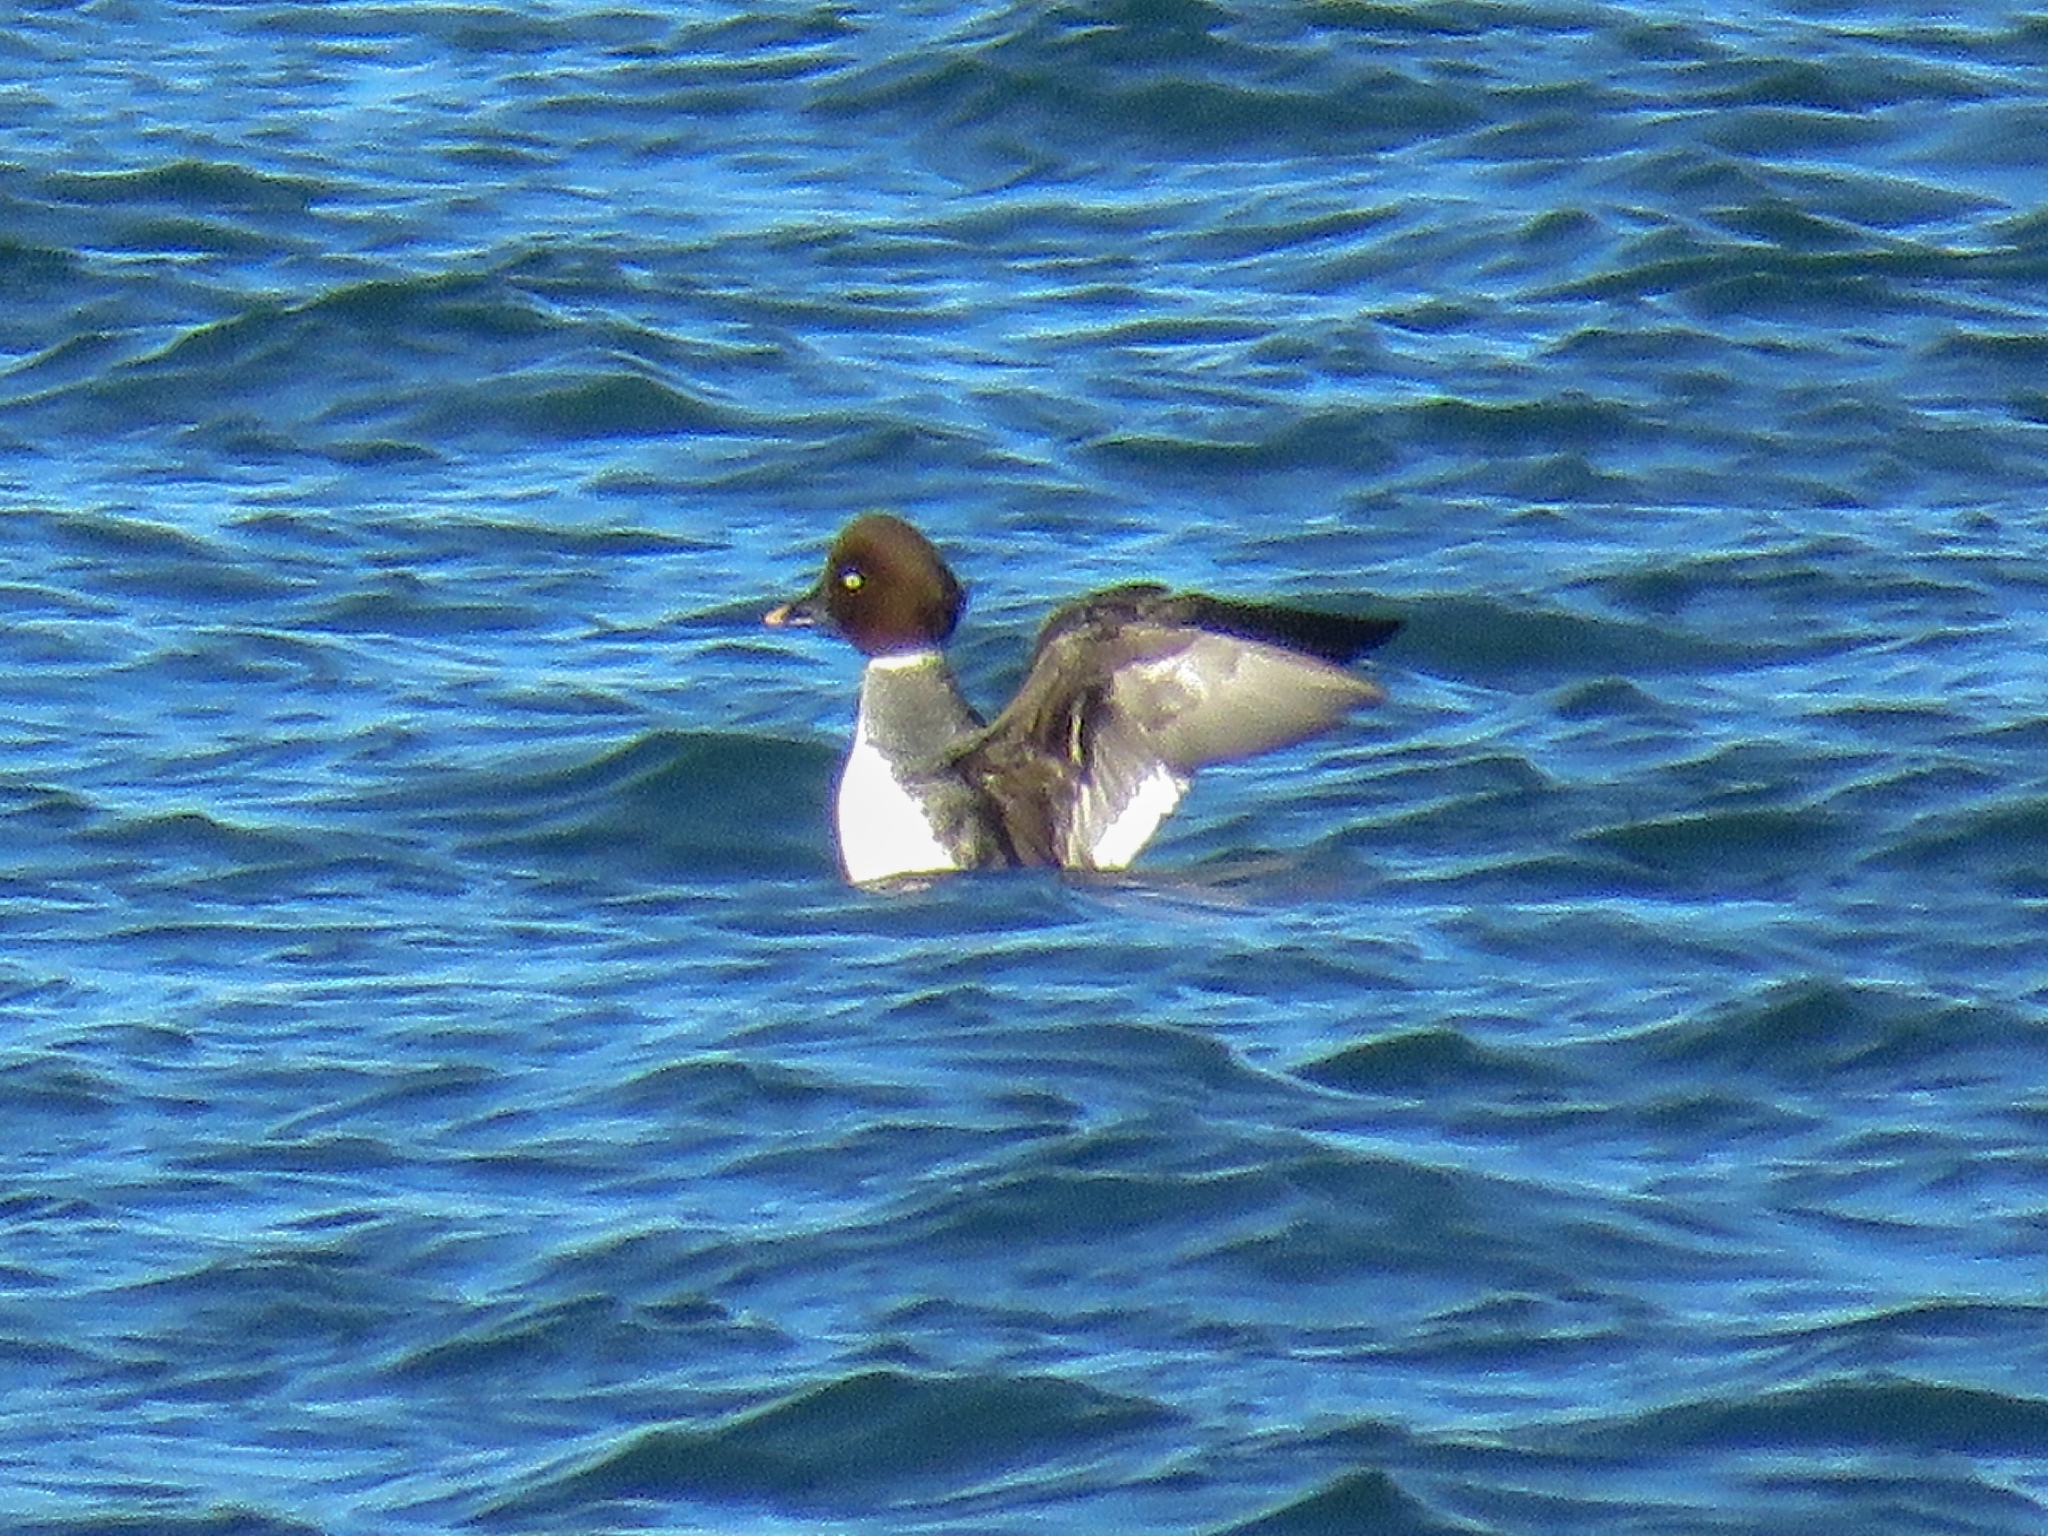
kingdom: Animalia
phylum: Chordata
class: Aves
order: Anseriformes
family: Anatidae
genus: Bucephala
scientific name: Bucephala clangula
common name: Common goldeneye
